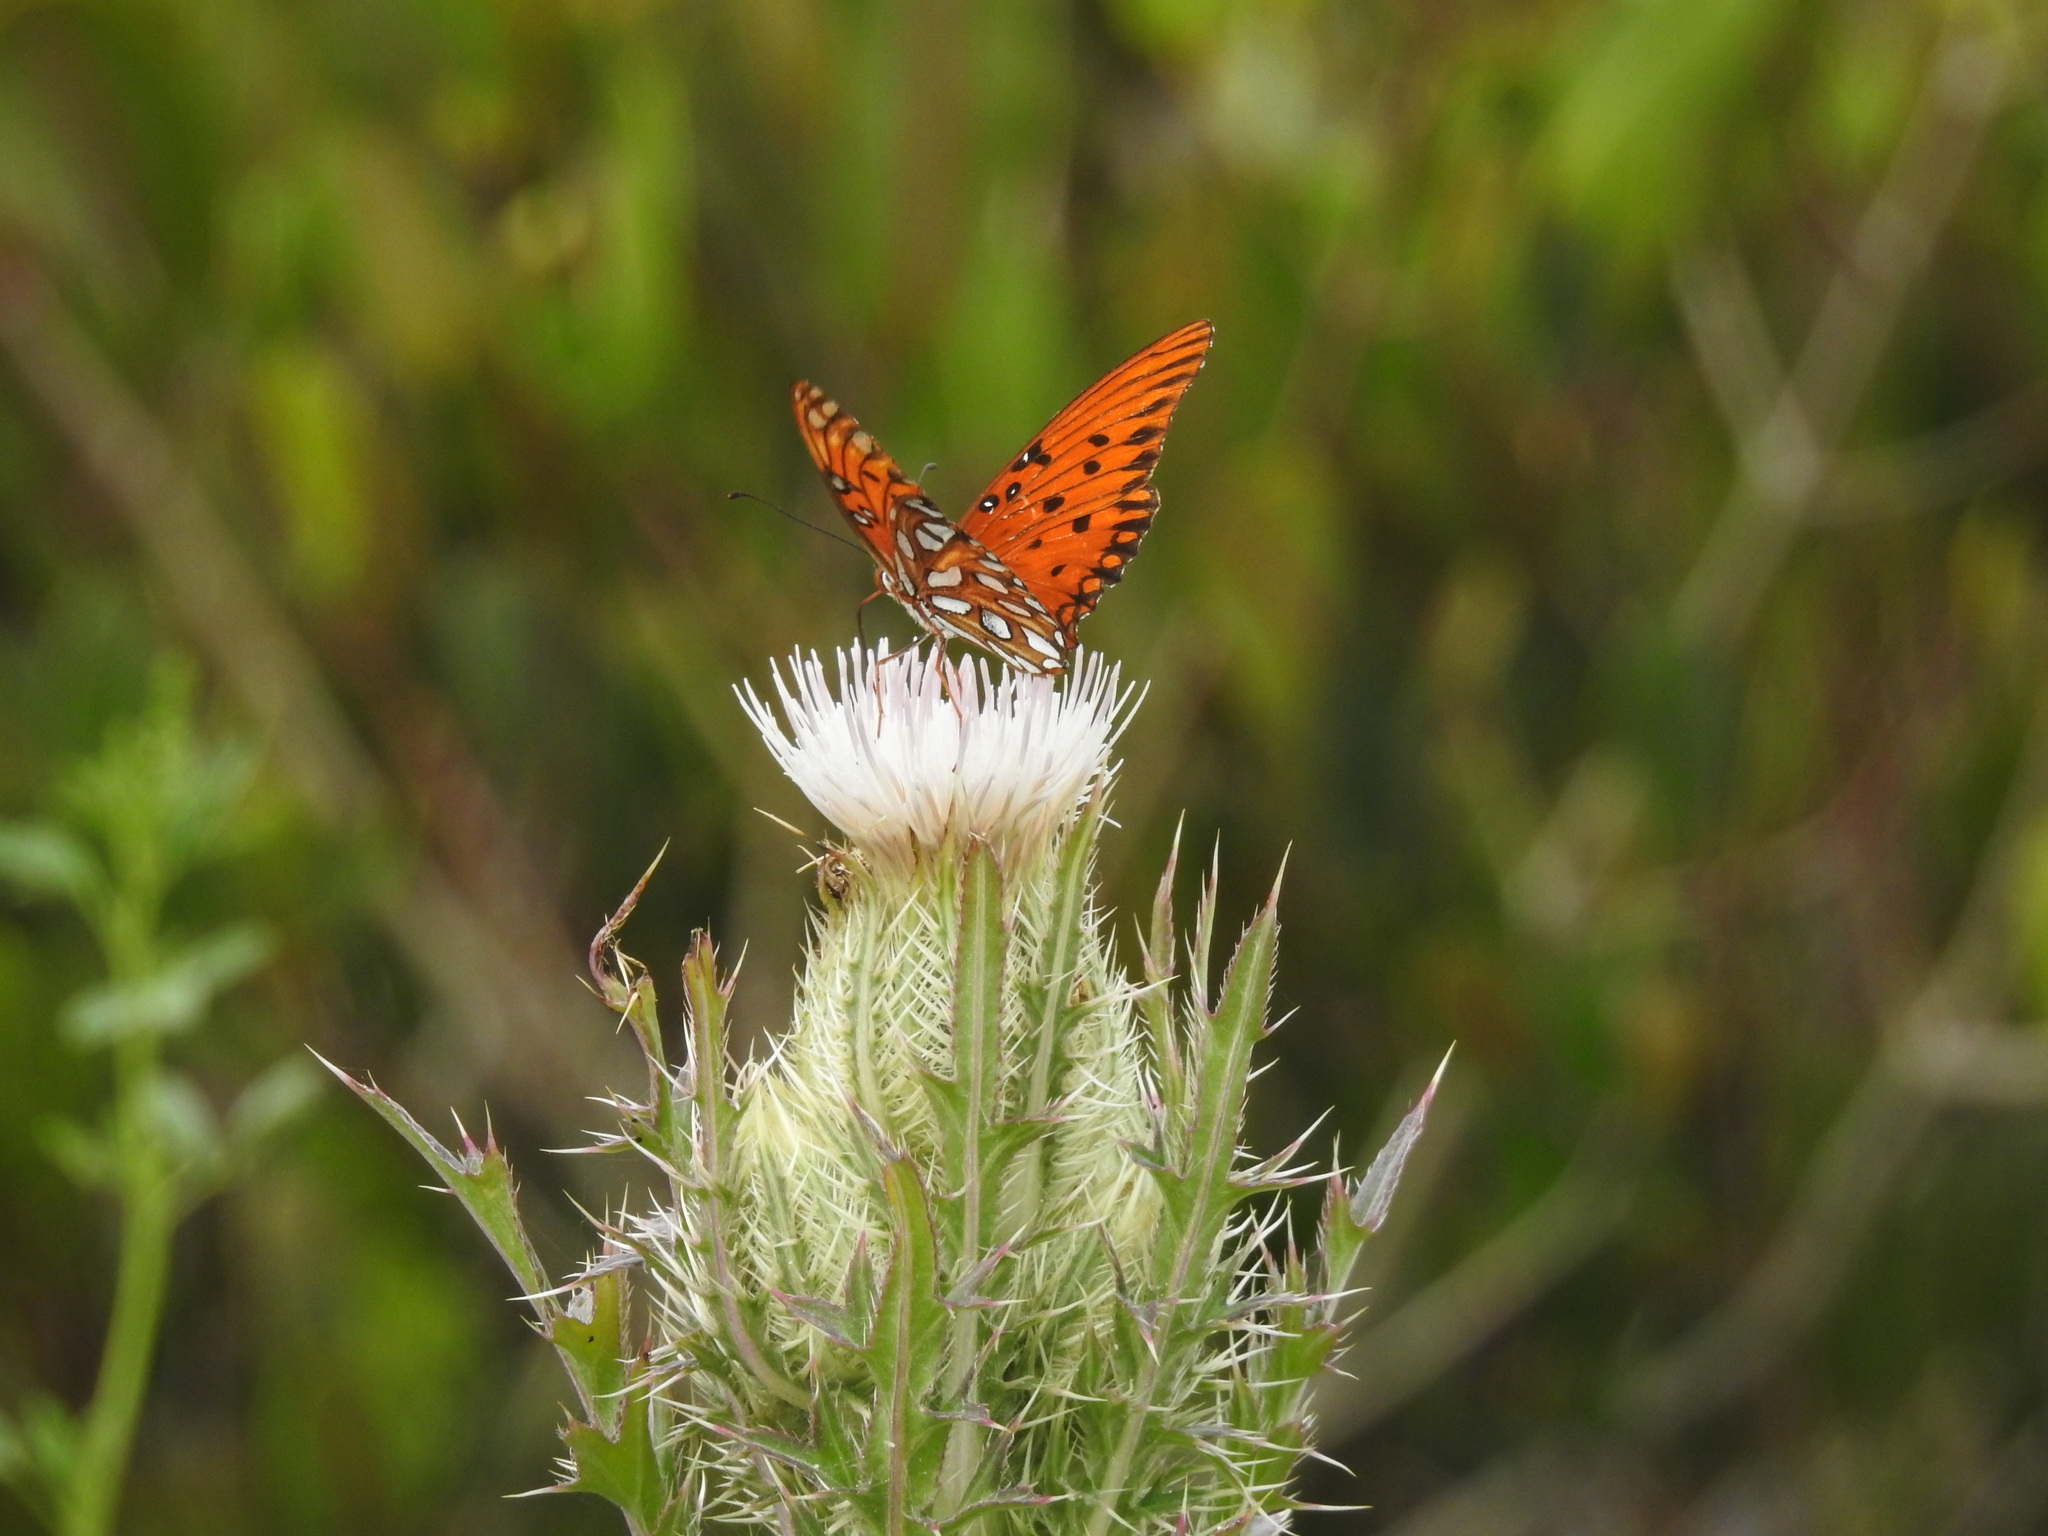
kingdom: Animalia
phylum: Arthropoda
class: Insecta
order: Lepidoptera
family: Nymphalidae
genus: Dione
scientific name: Dione vanillae
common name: Gulf fritillary
